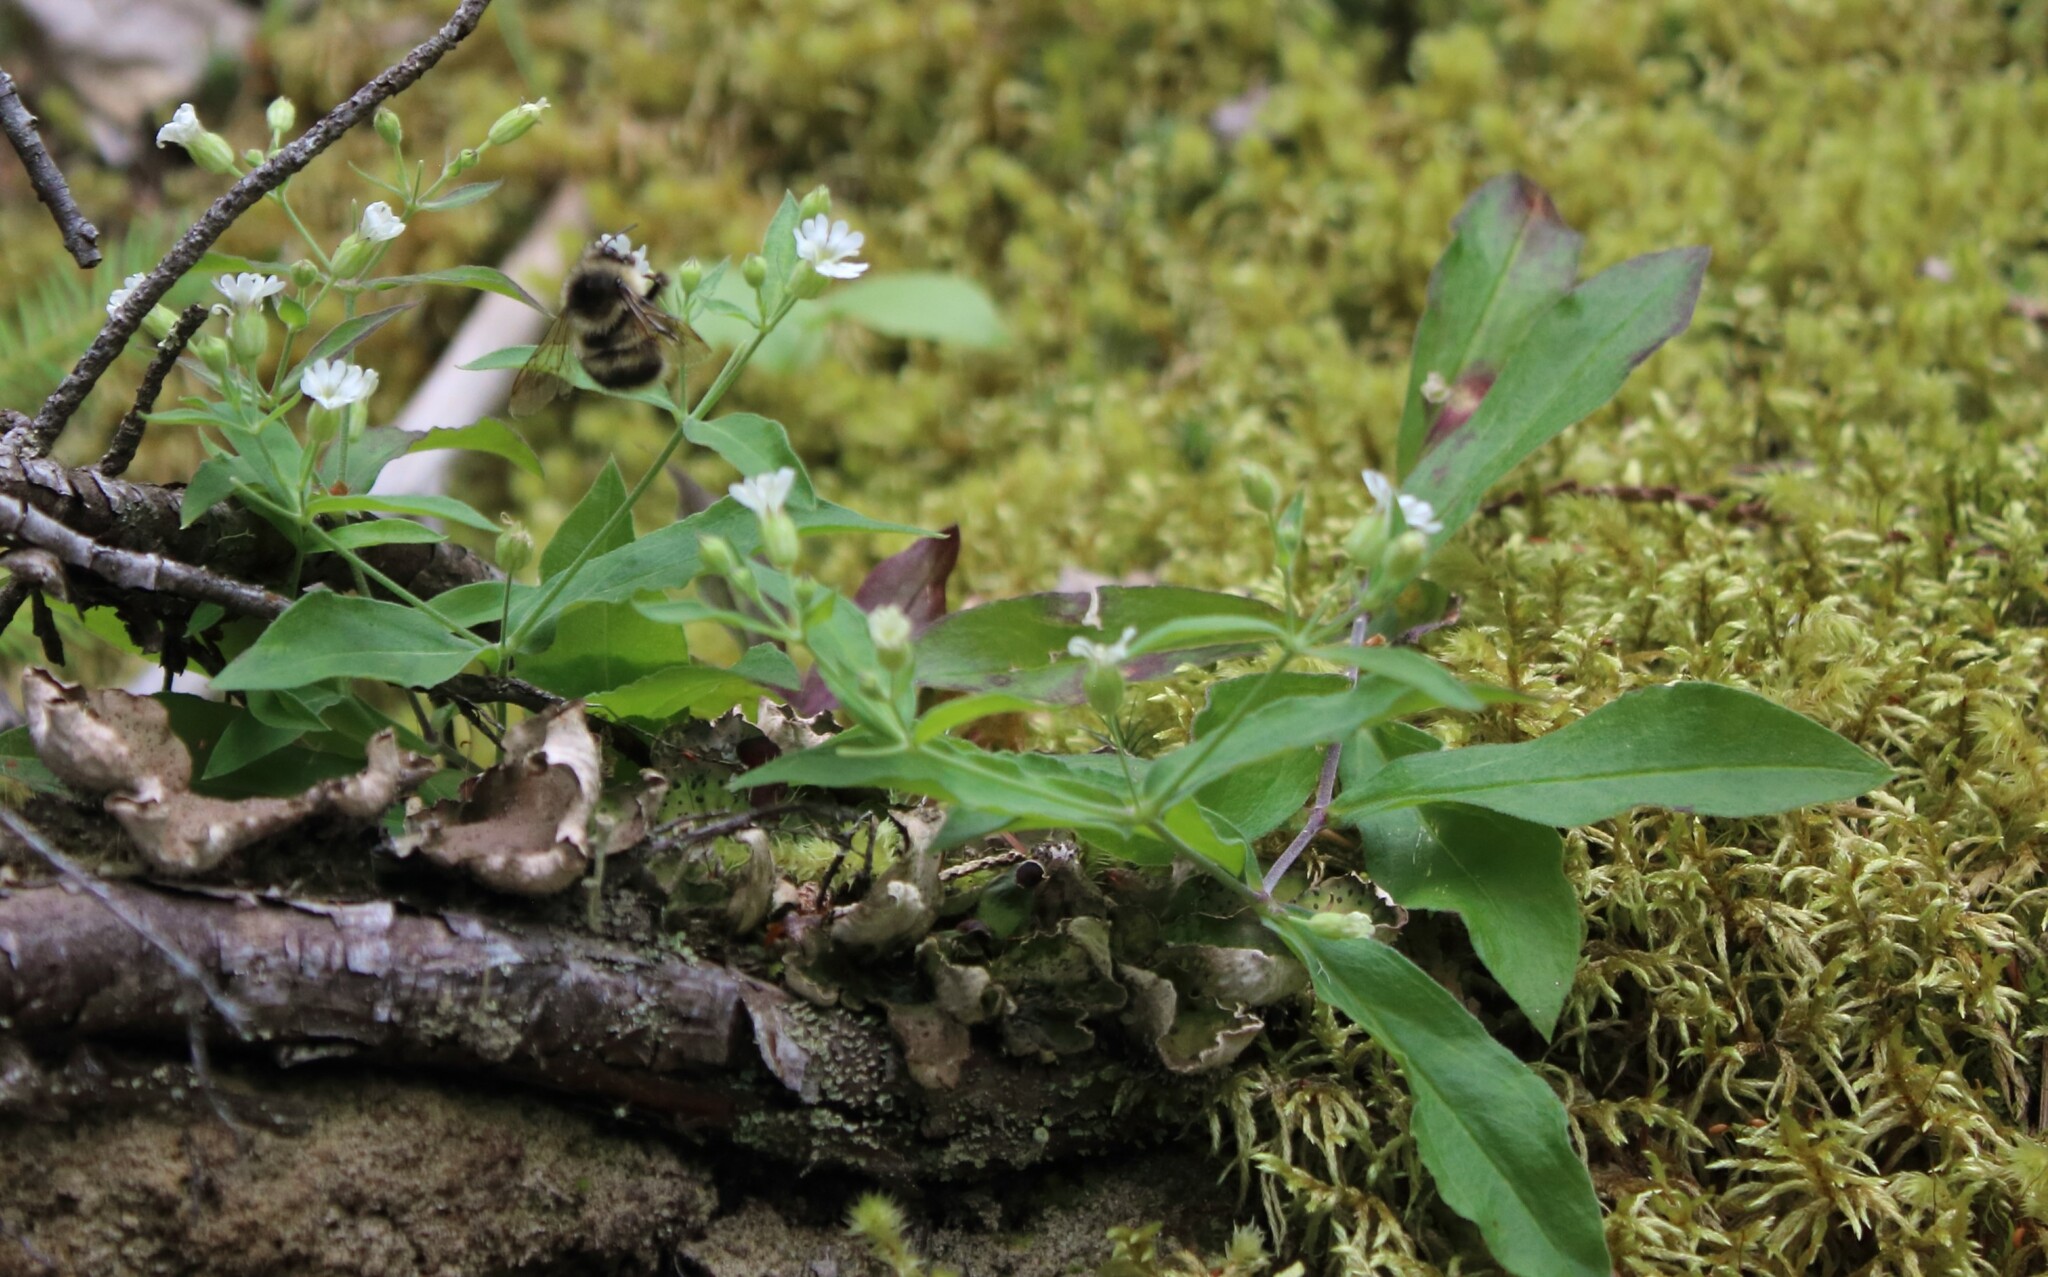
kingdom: Plantae
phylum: Tracheophyta
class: Magnoliopsida
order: Caryophyllales
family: Caryophyllaceae
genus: Silene
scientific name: Silene menziesii
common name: Menzies's catchfly
